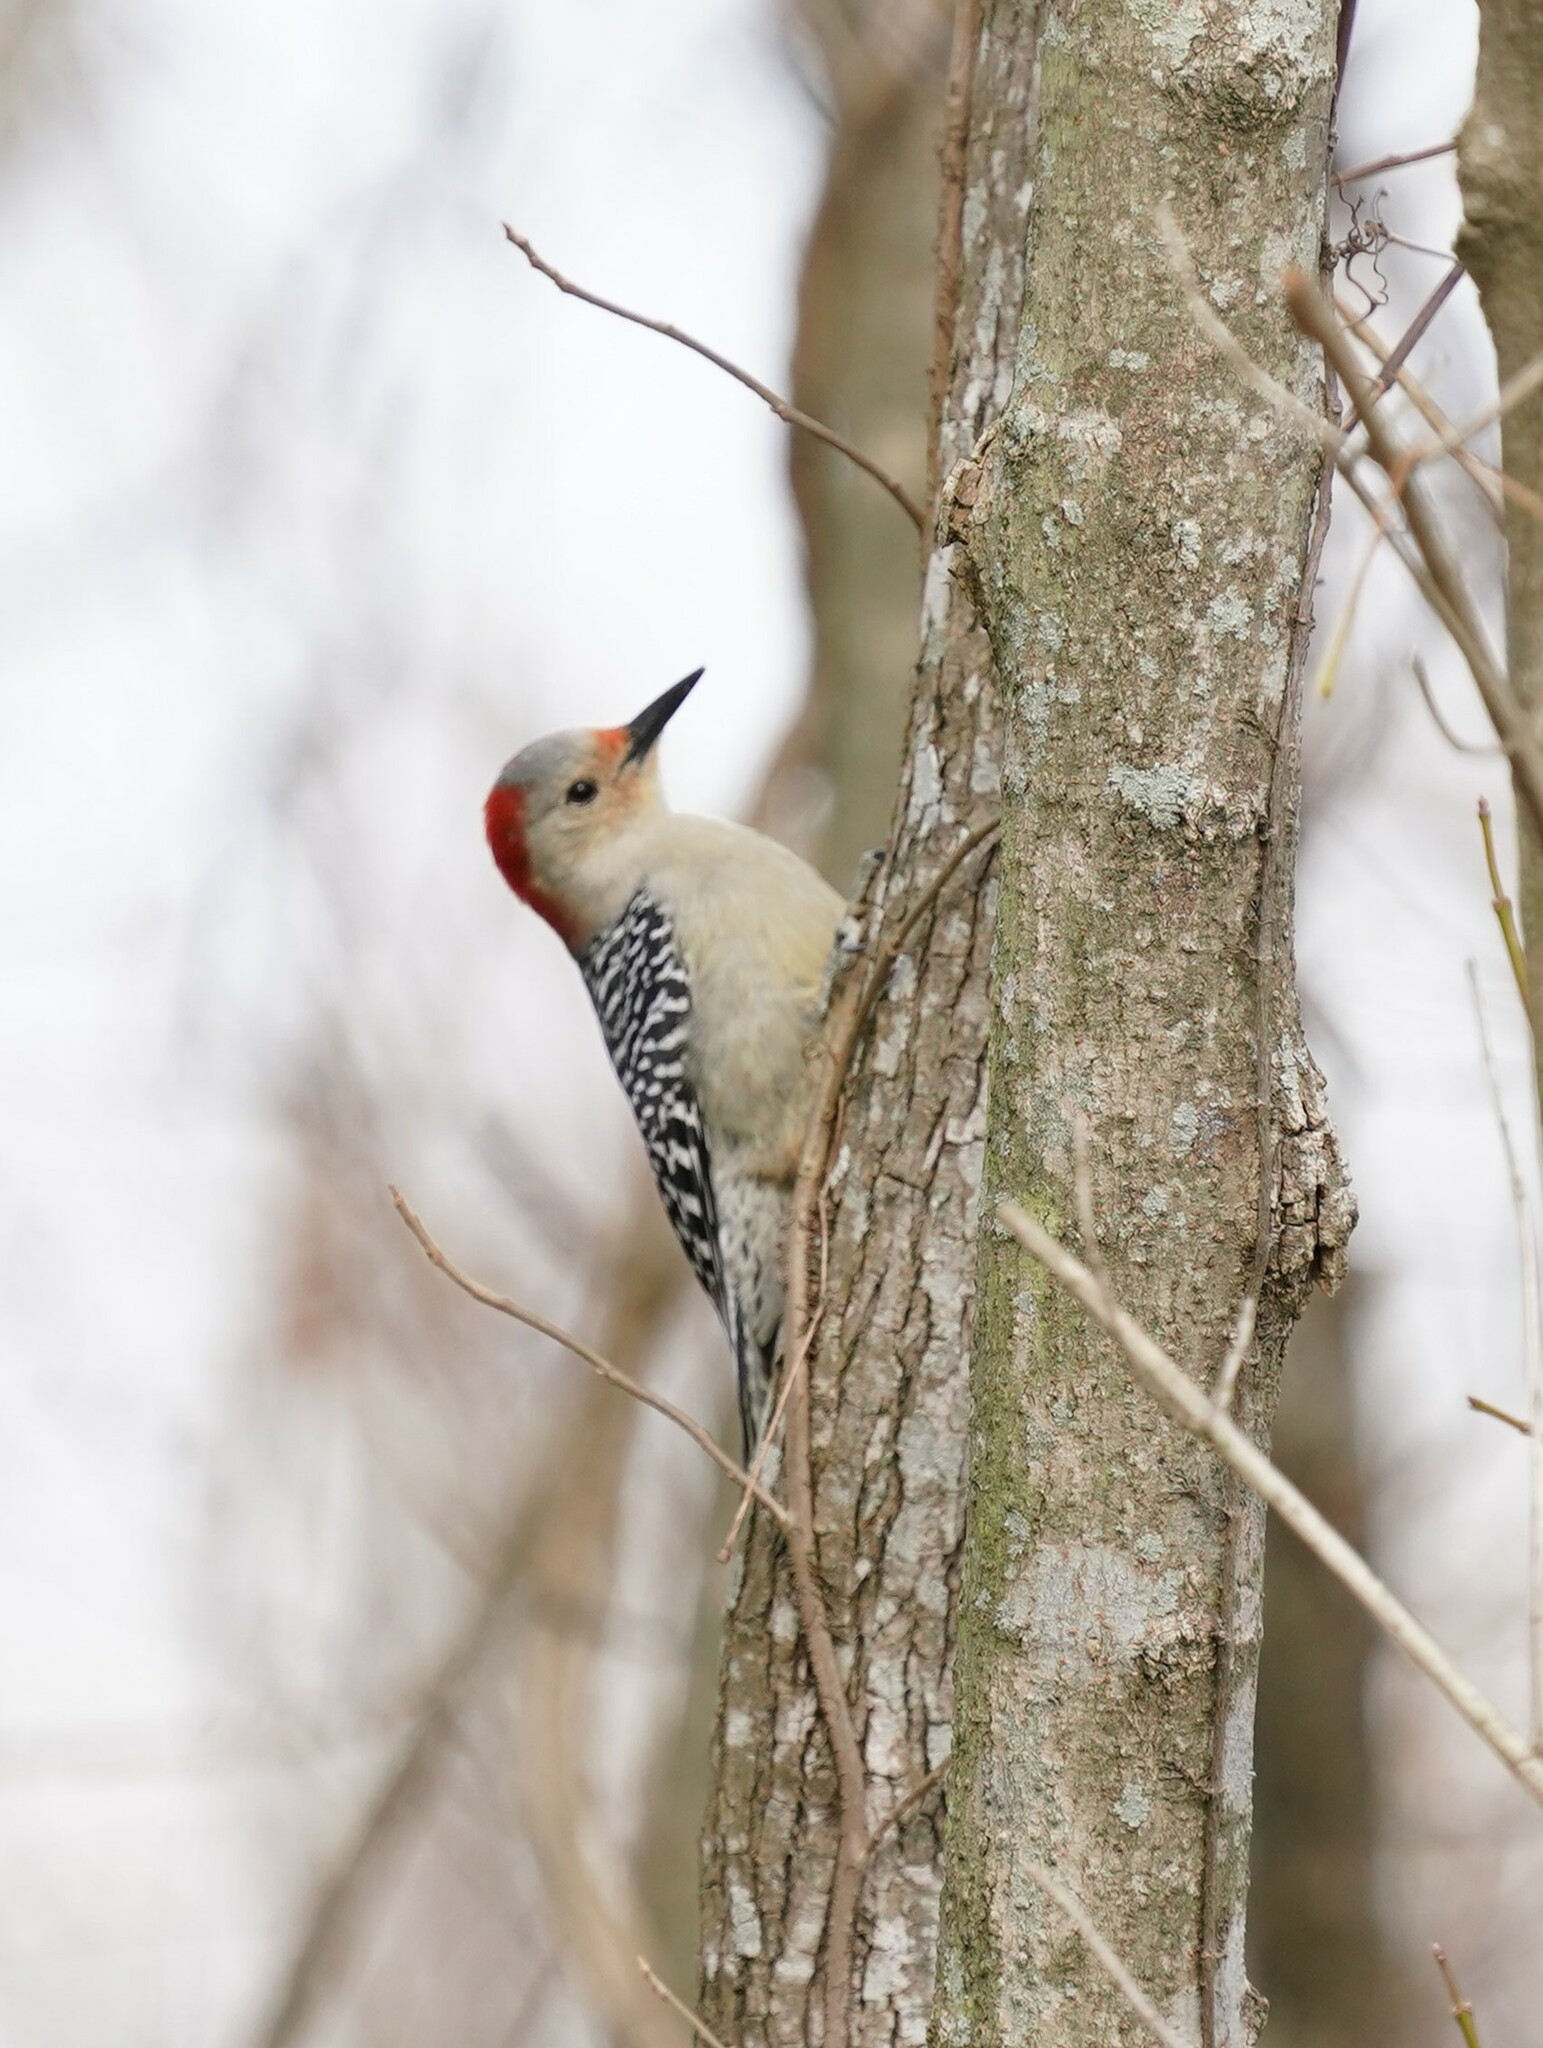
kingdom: Animalia
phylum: Chordata
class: Aves
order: Piciformes
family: Picidae
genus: Melanerpes
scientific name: Melanerpes carolinus
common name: Red-bellied woodpecker
